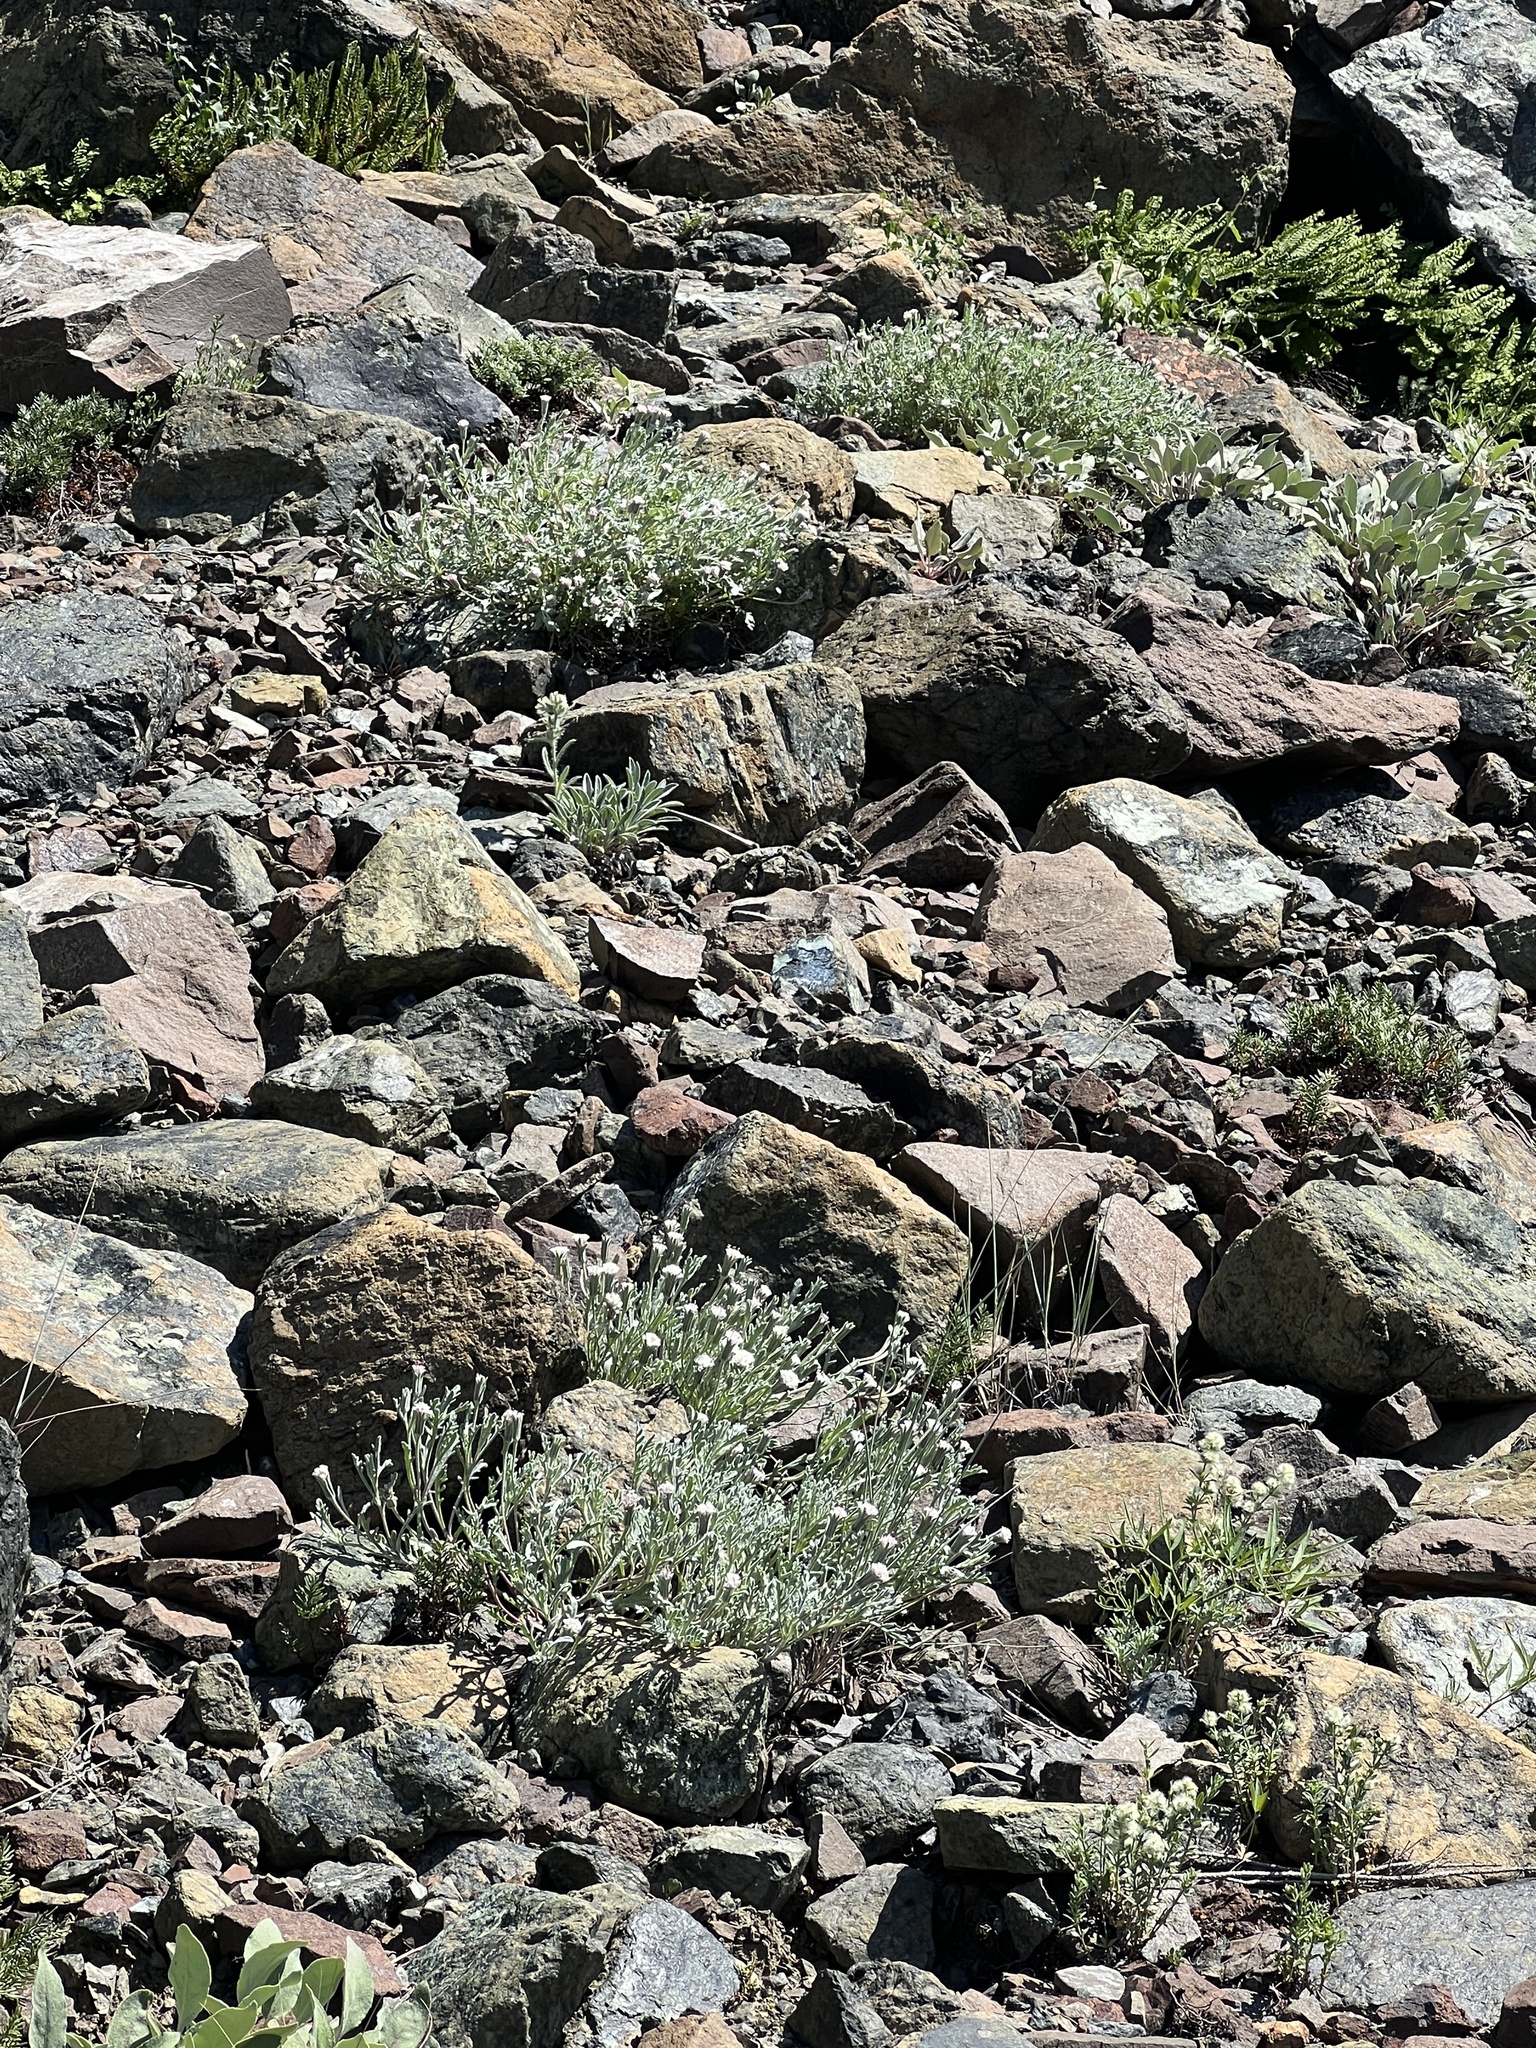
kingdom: Plantae
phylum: Tracheophyta
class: Magnoliopsida
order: Asterales
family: Asteraceae
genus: Chaenactis
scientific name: Chaenactis thompsonii
